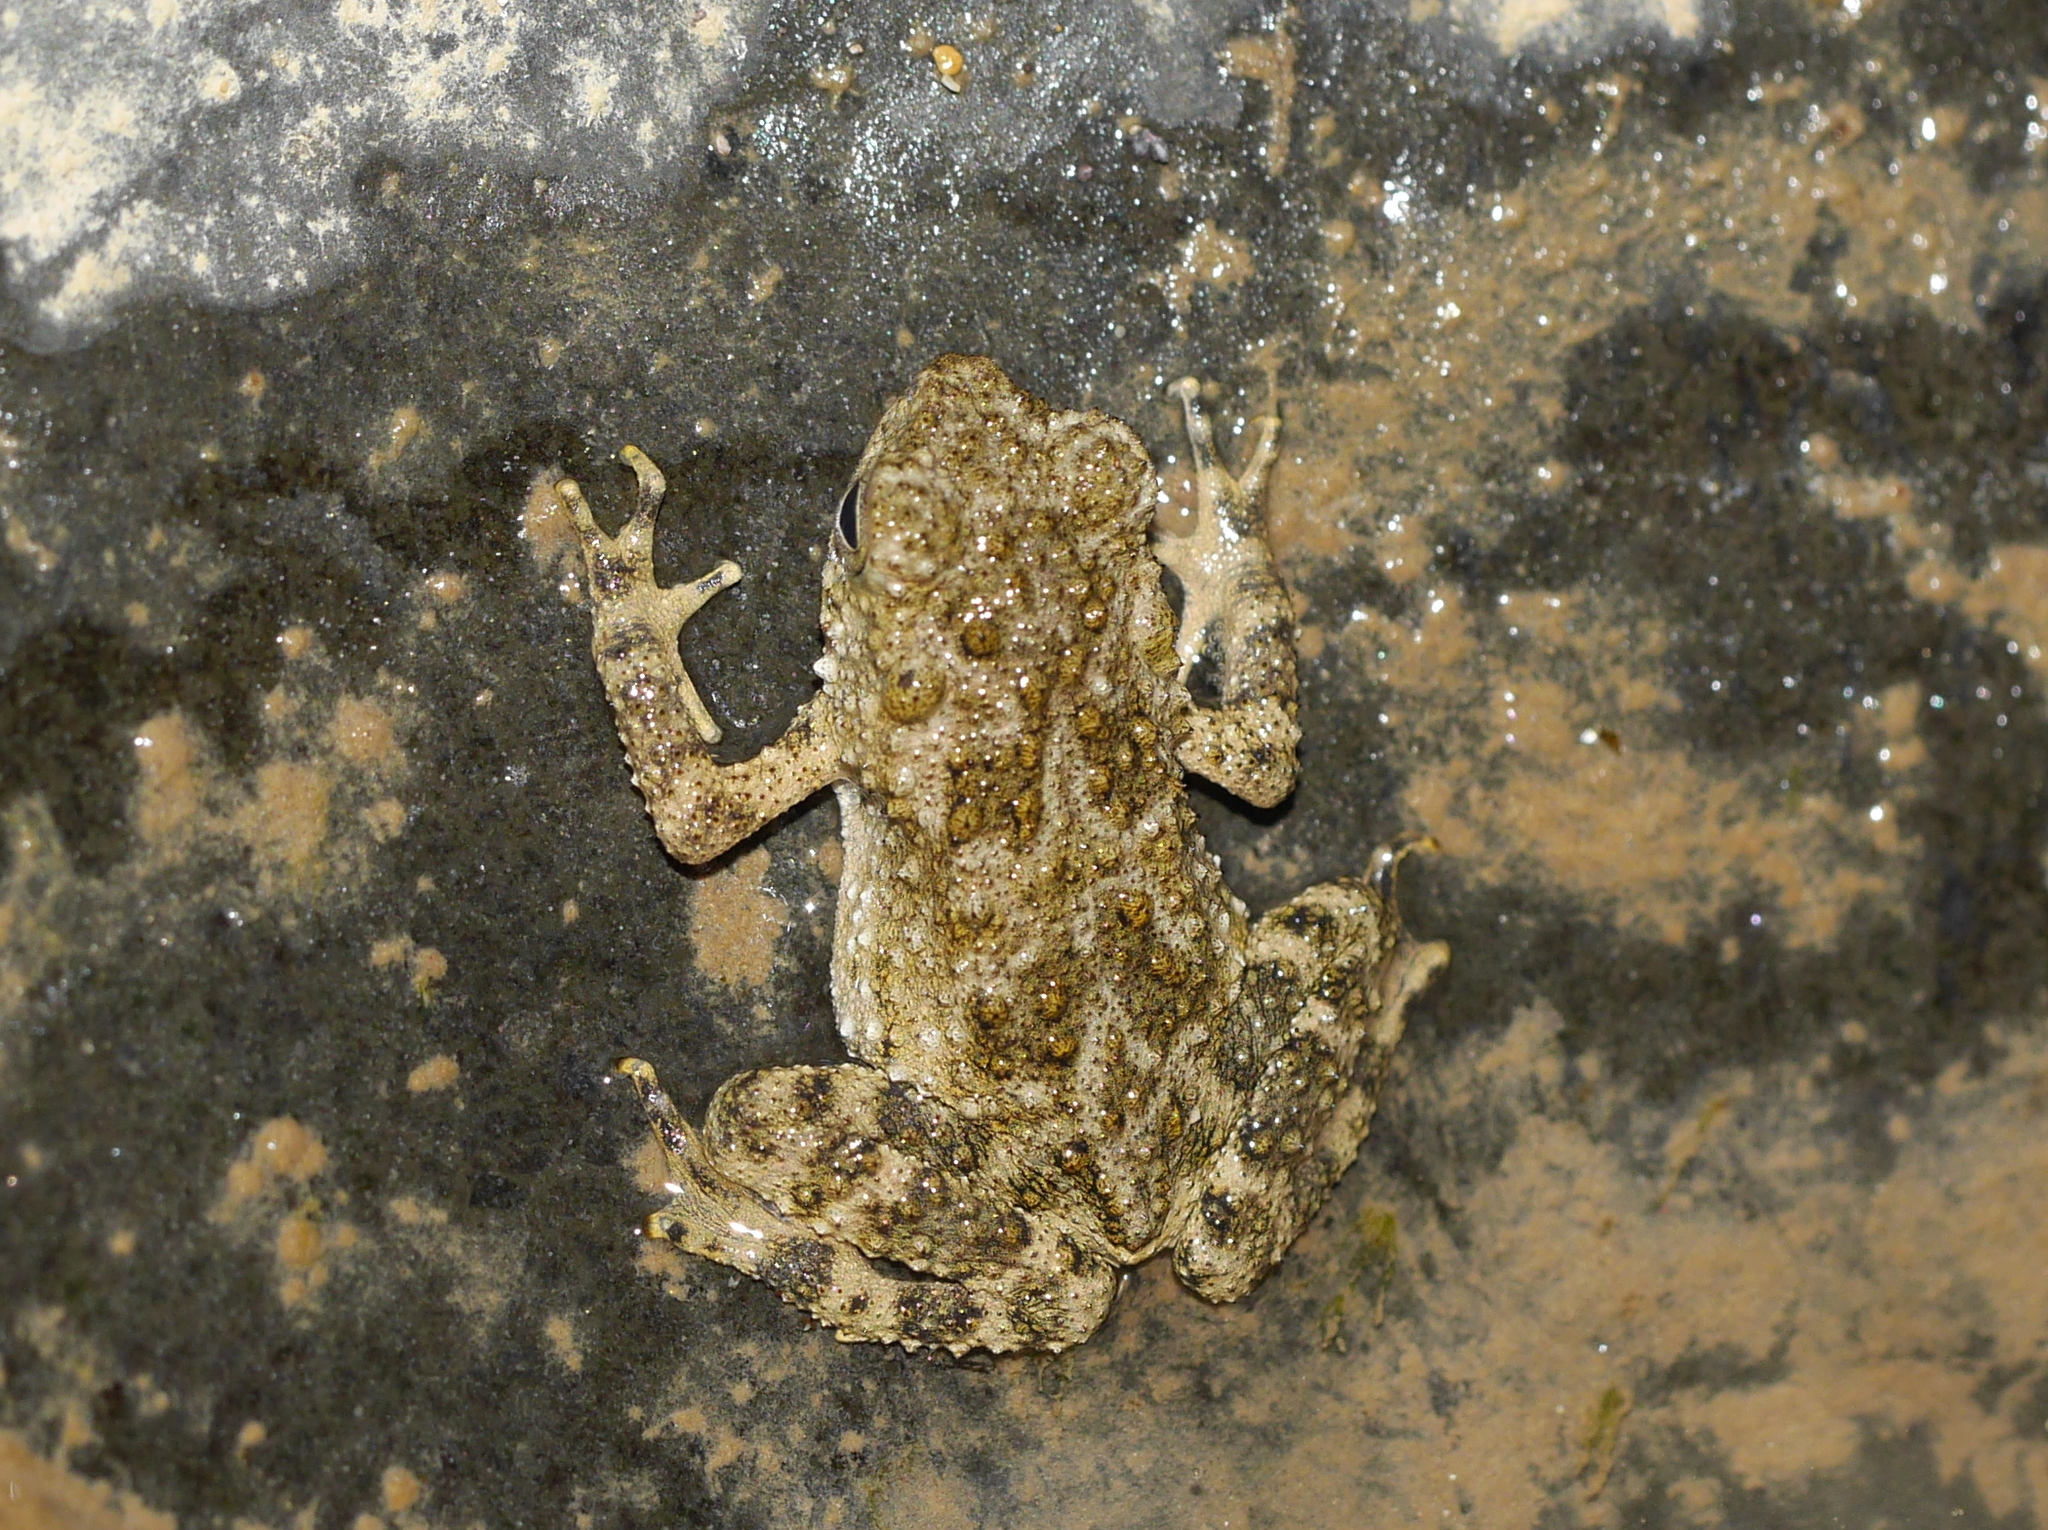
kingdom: Animalia
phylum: Chordata
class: Amphibia
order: Anura
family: Bufonidae
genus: Phrynoidis
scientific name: Phrynoidis asper
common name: Asian giant toad
